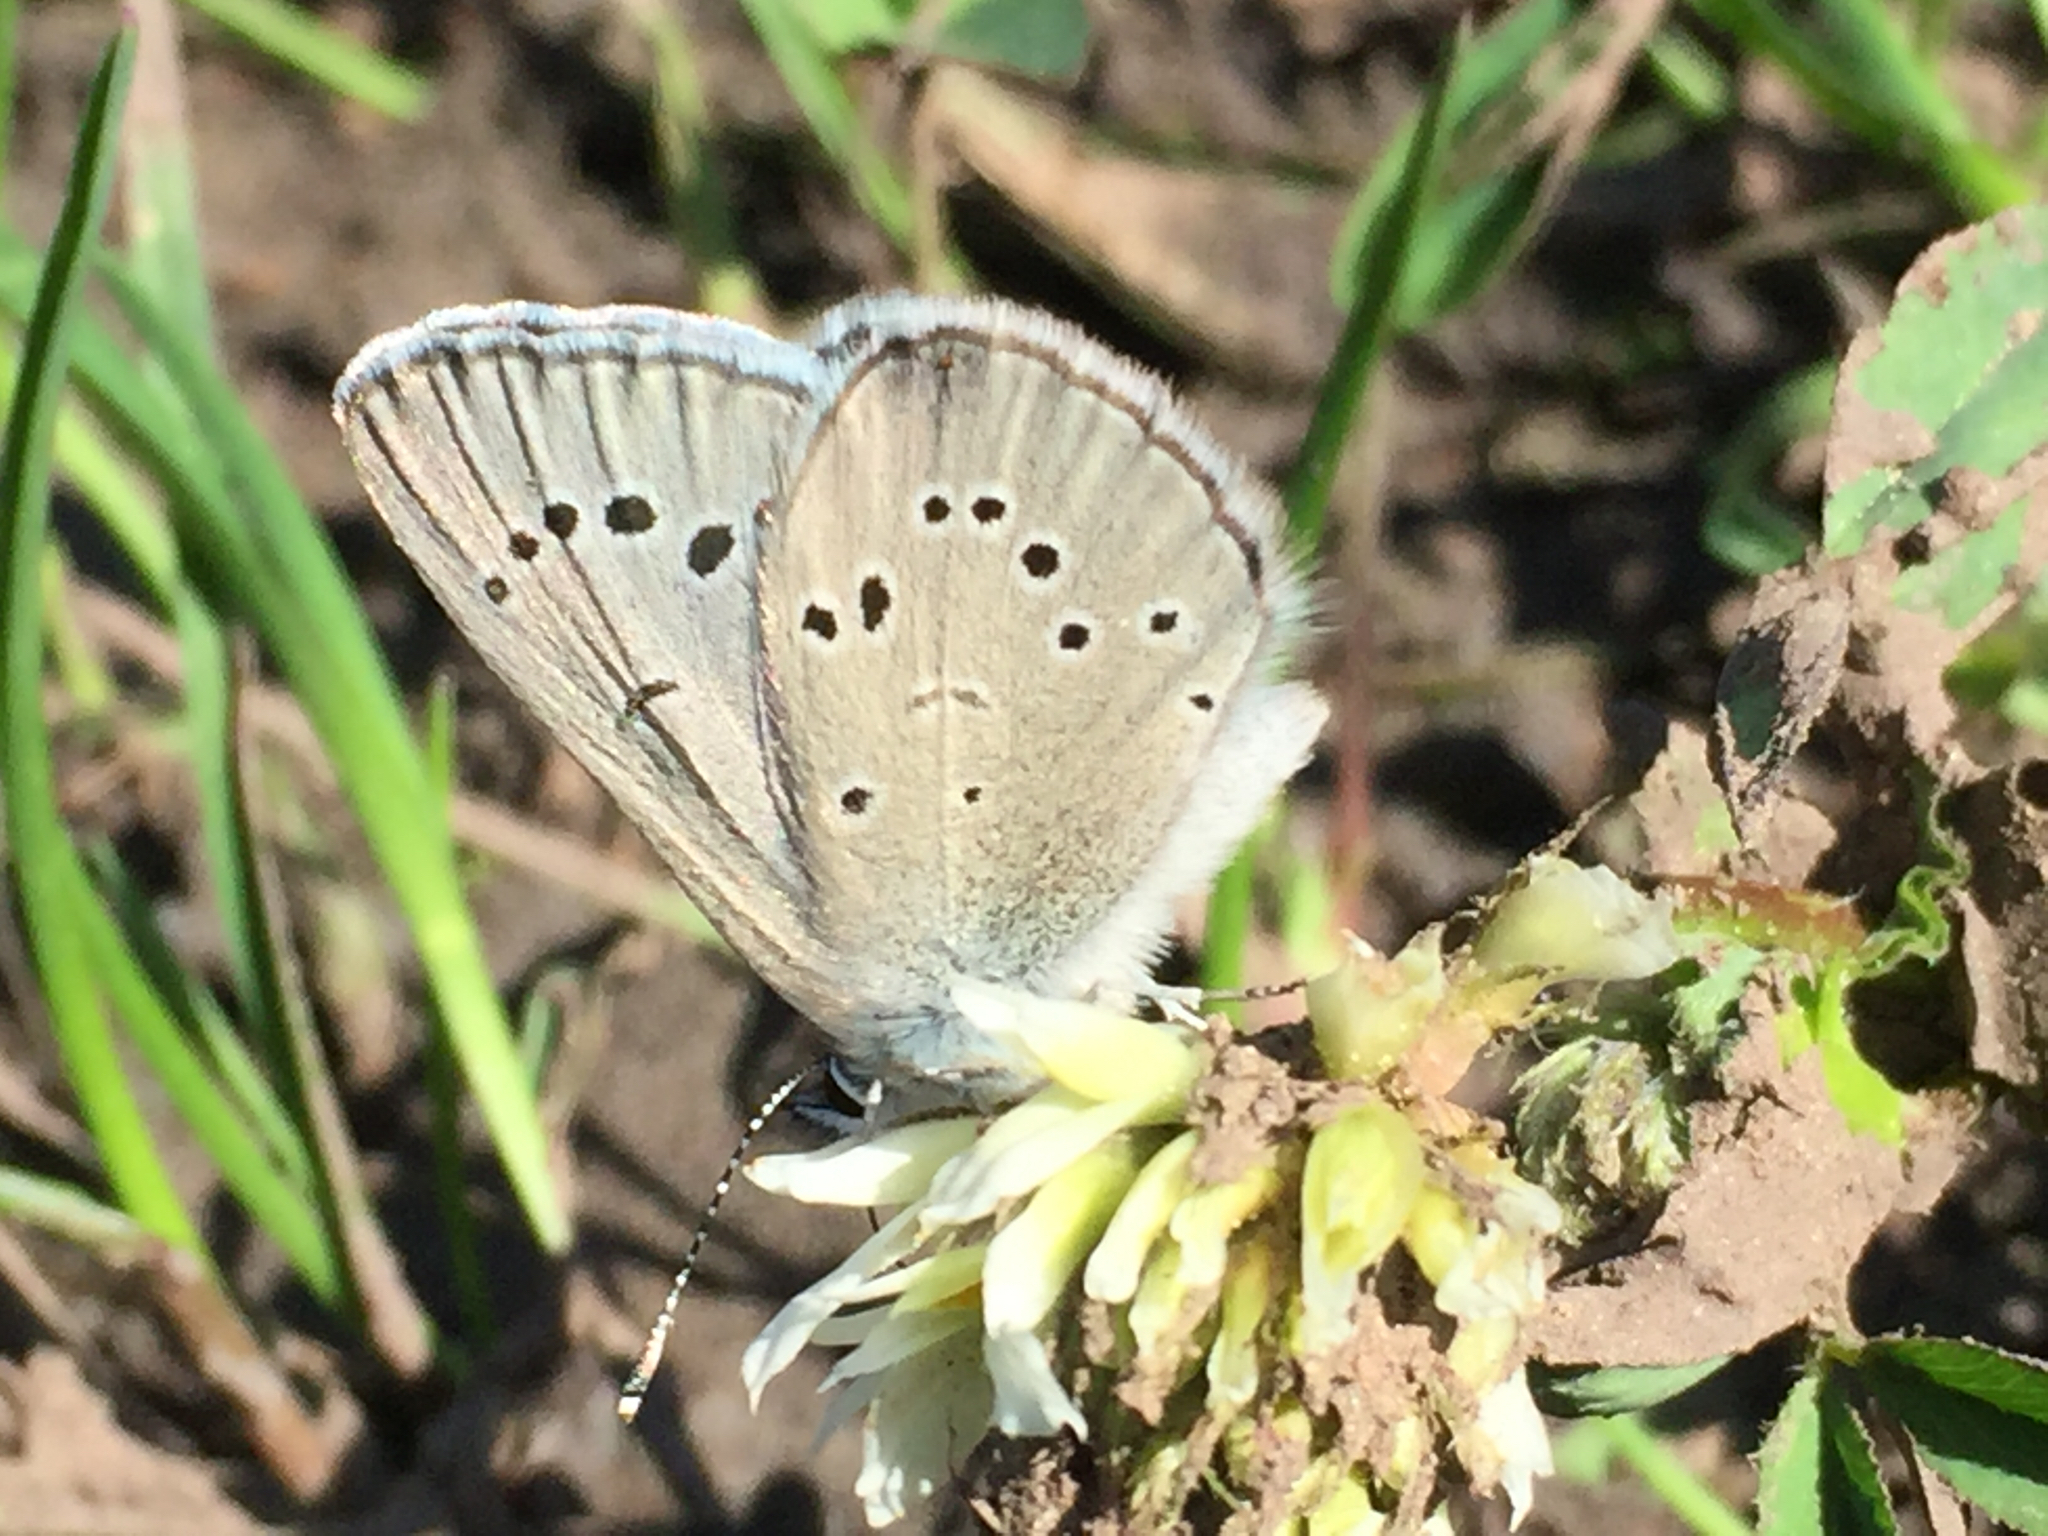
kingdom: Animalia
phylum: Arthropoda
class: Insecta
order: Lepidoptera
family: Lycaenidae
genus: Glaucopsyche
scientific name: Glaucopsyche lygdamus
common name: Silvery blue
